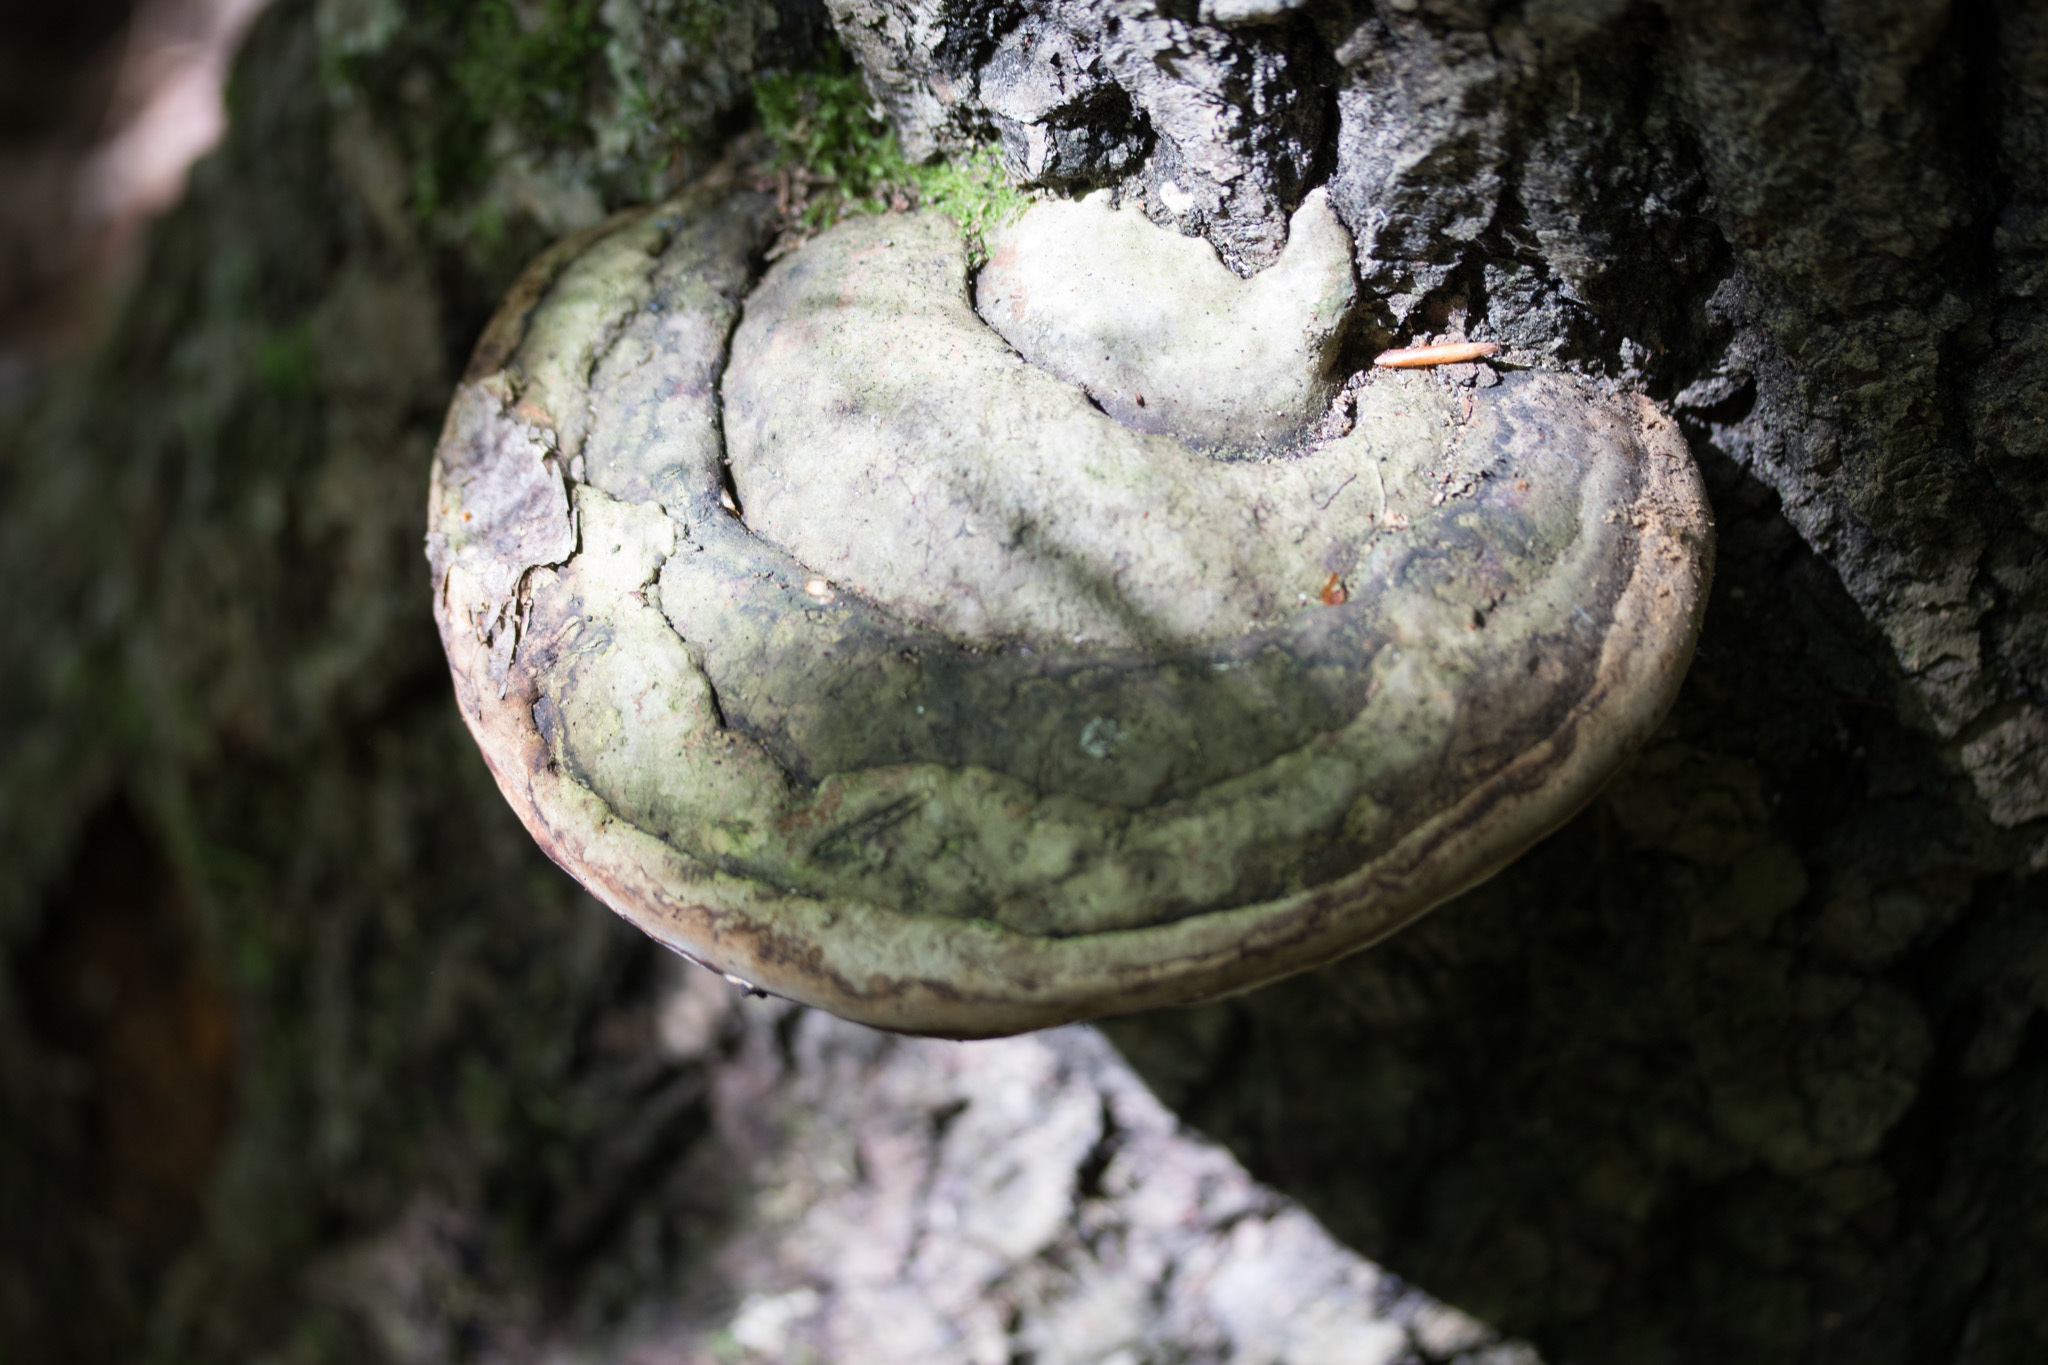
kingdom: Fungi
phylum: Basidiomycota
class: Agaricomycetes
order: Polyporales
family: Polyporaceae
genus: Ganoderma
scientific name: Ganoderma applanatum
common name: Artist's bracket
